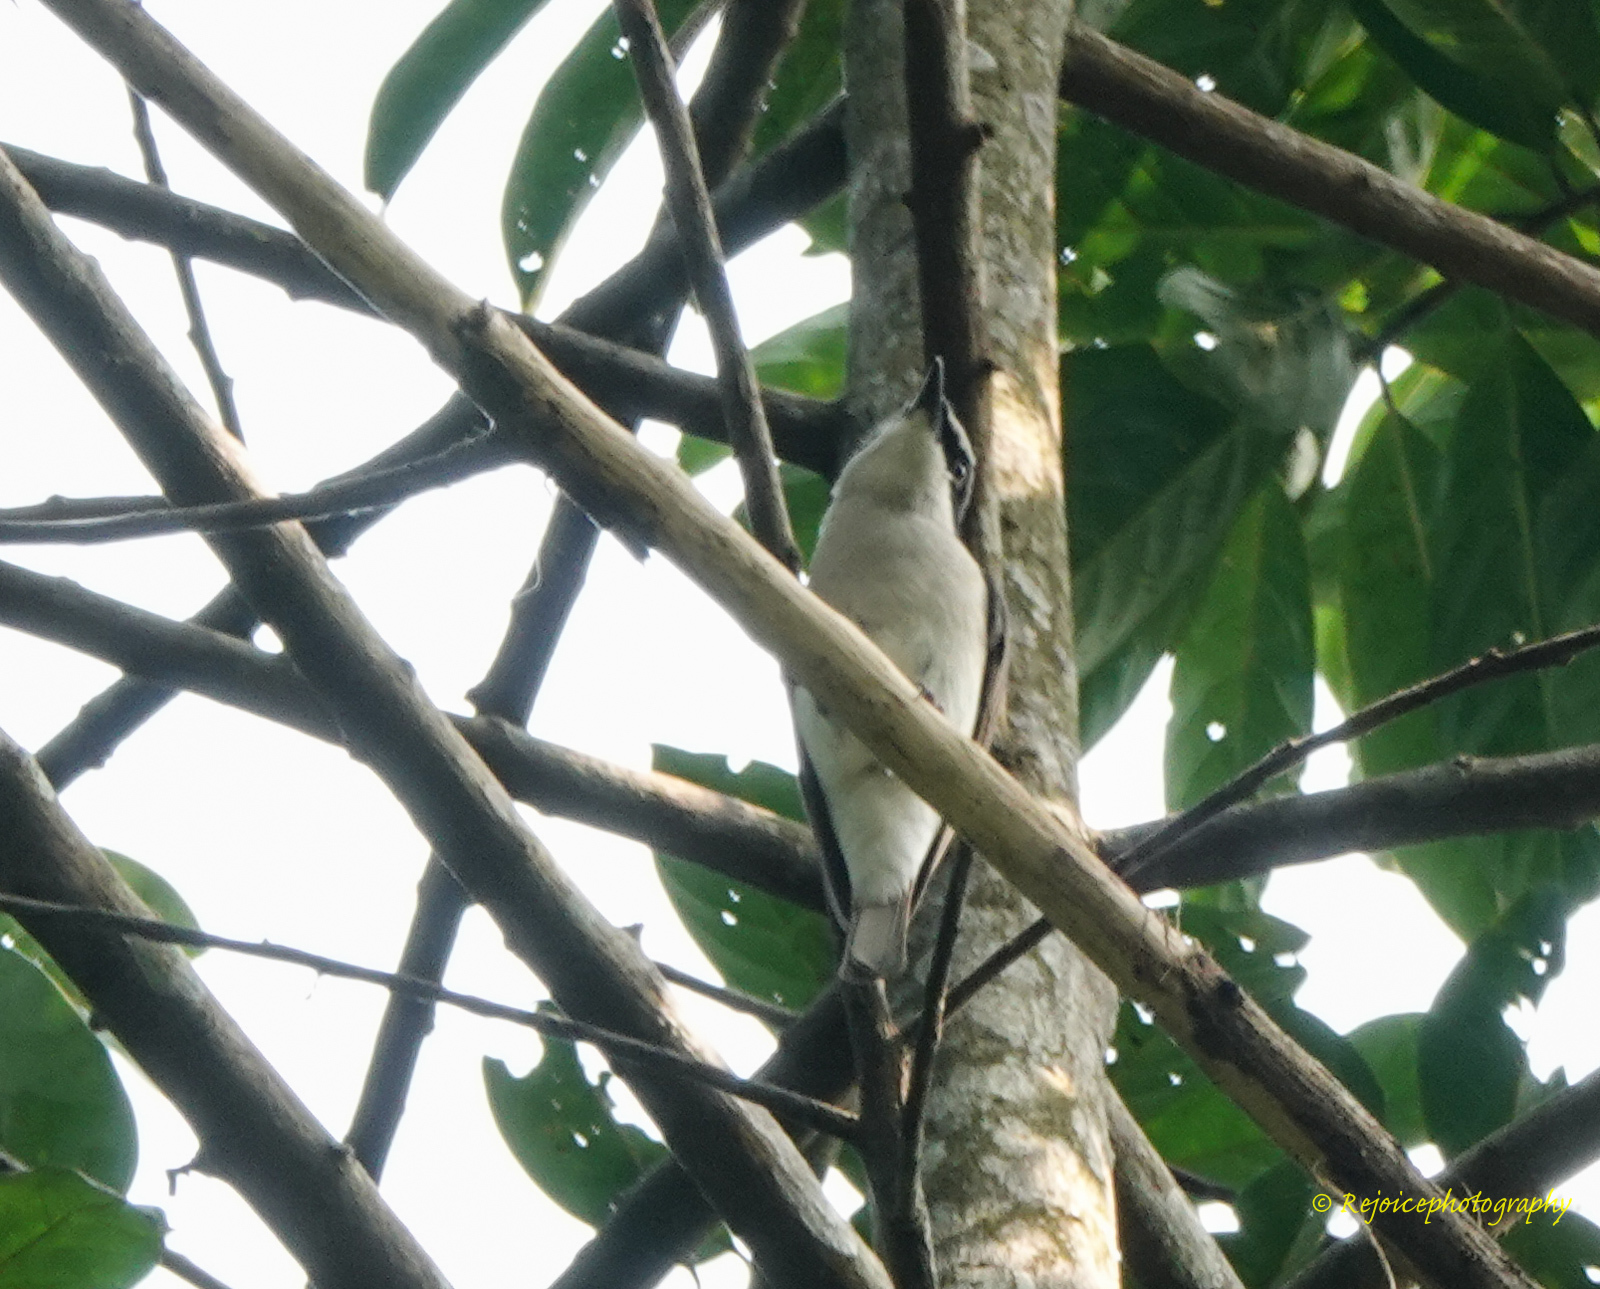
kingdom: Animalia
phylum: Chordata
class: Aves
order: Passeriformes
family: Campephagidae
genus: Coracina
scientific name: Coracina macei
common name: Large cuckooshrike
